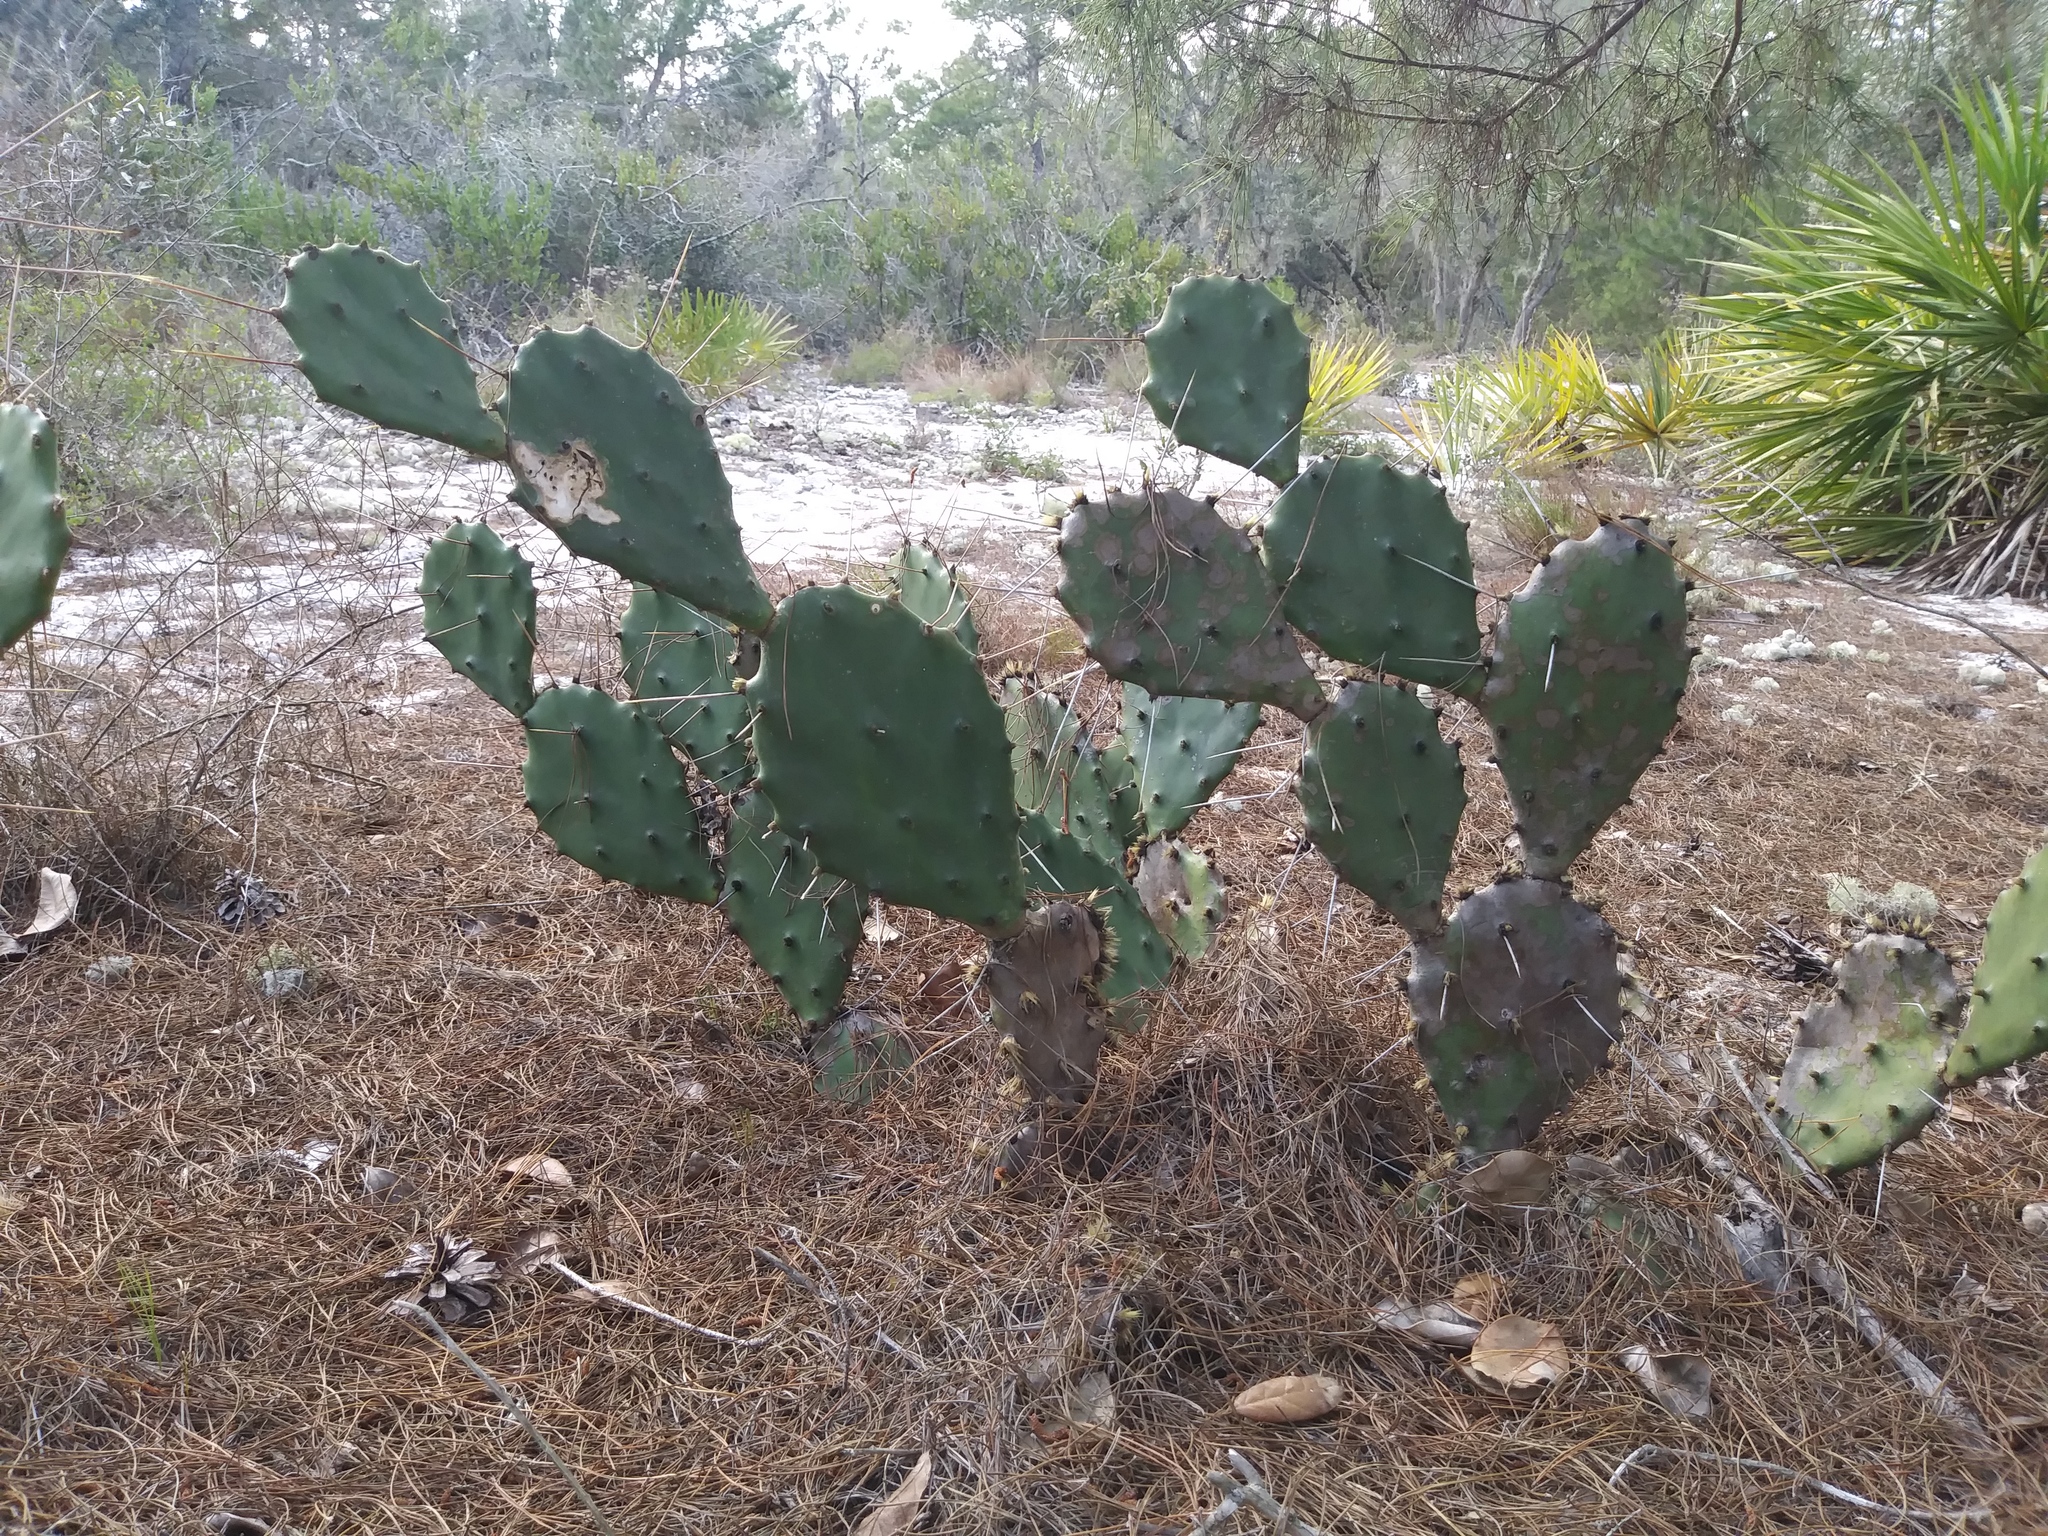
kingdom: Plantae
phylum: Tracheophyta
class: Magnoliopsida
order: Caryophyllales
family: Cactaceae
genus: Opuntia
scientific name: Opuntia austrina
